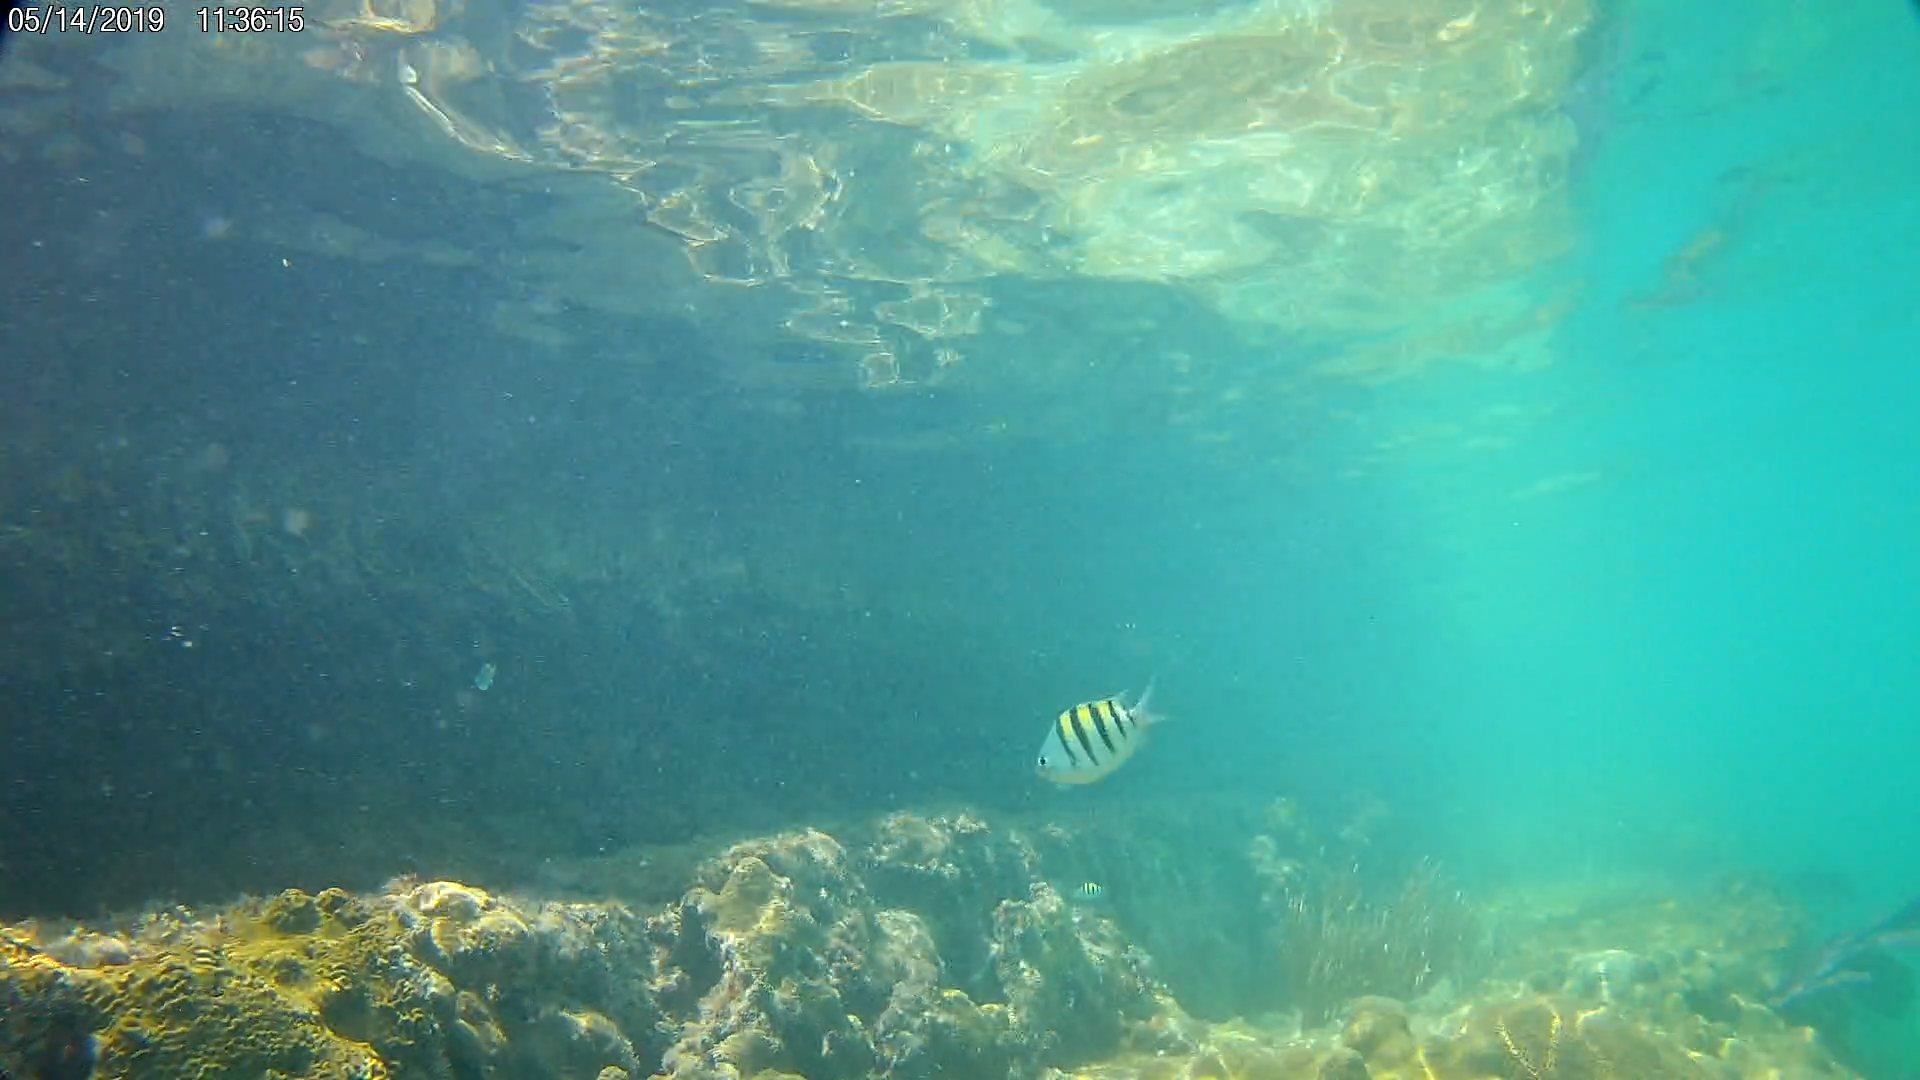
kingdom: Animalia
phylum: Chordata
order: Perciformes
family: Pomacentridae
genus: Abudefduf
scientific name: Abudefduf saxatilis
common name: Sergeant major
